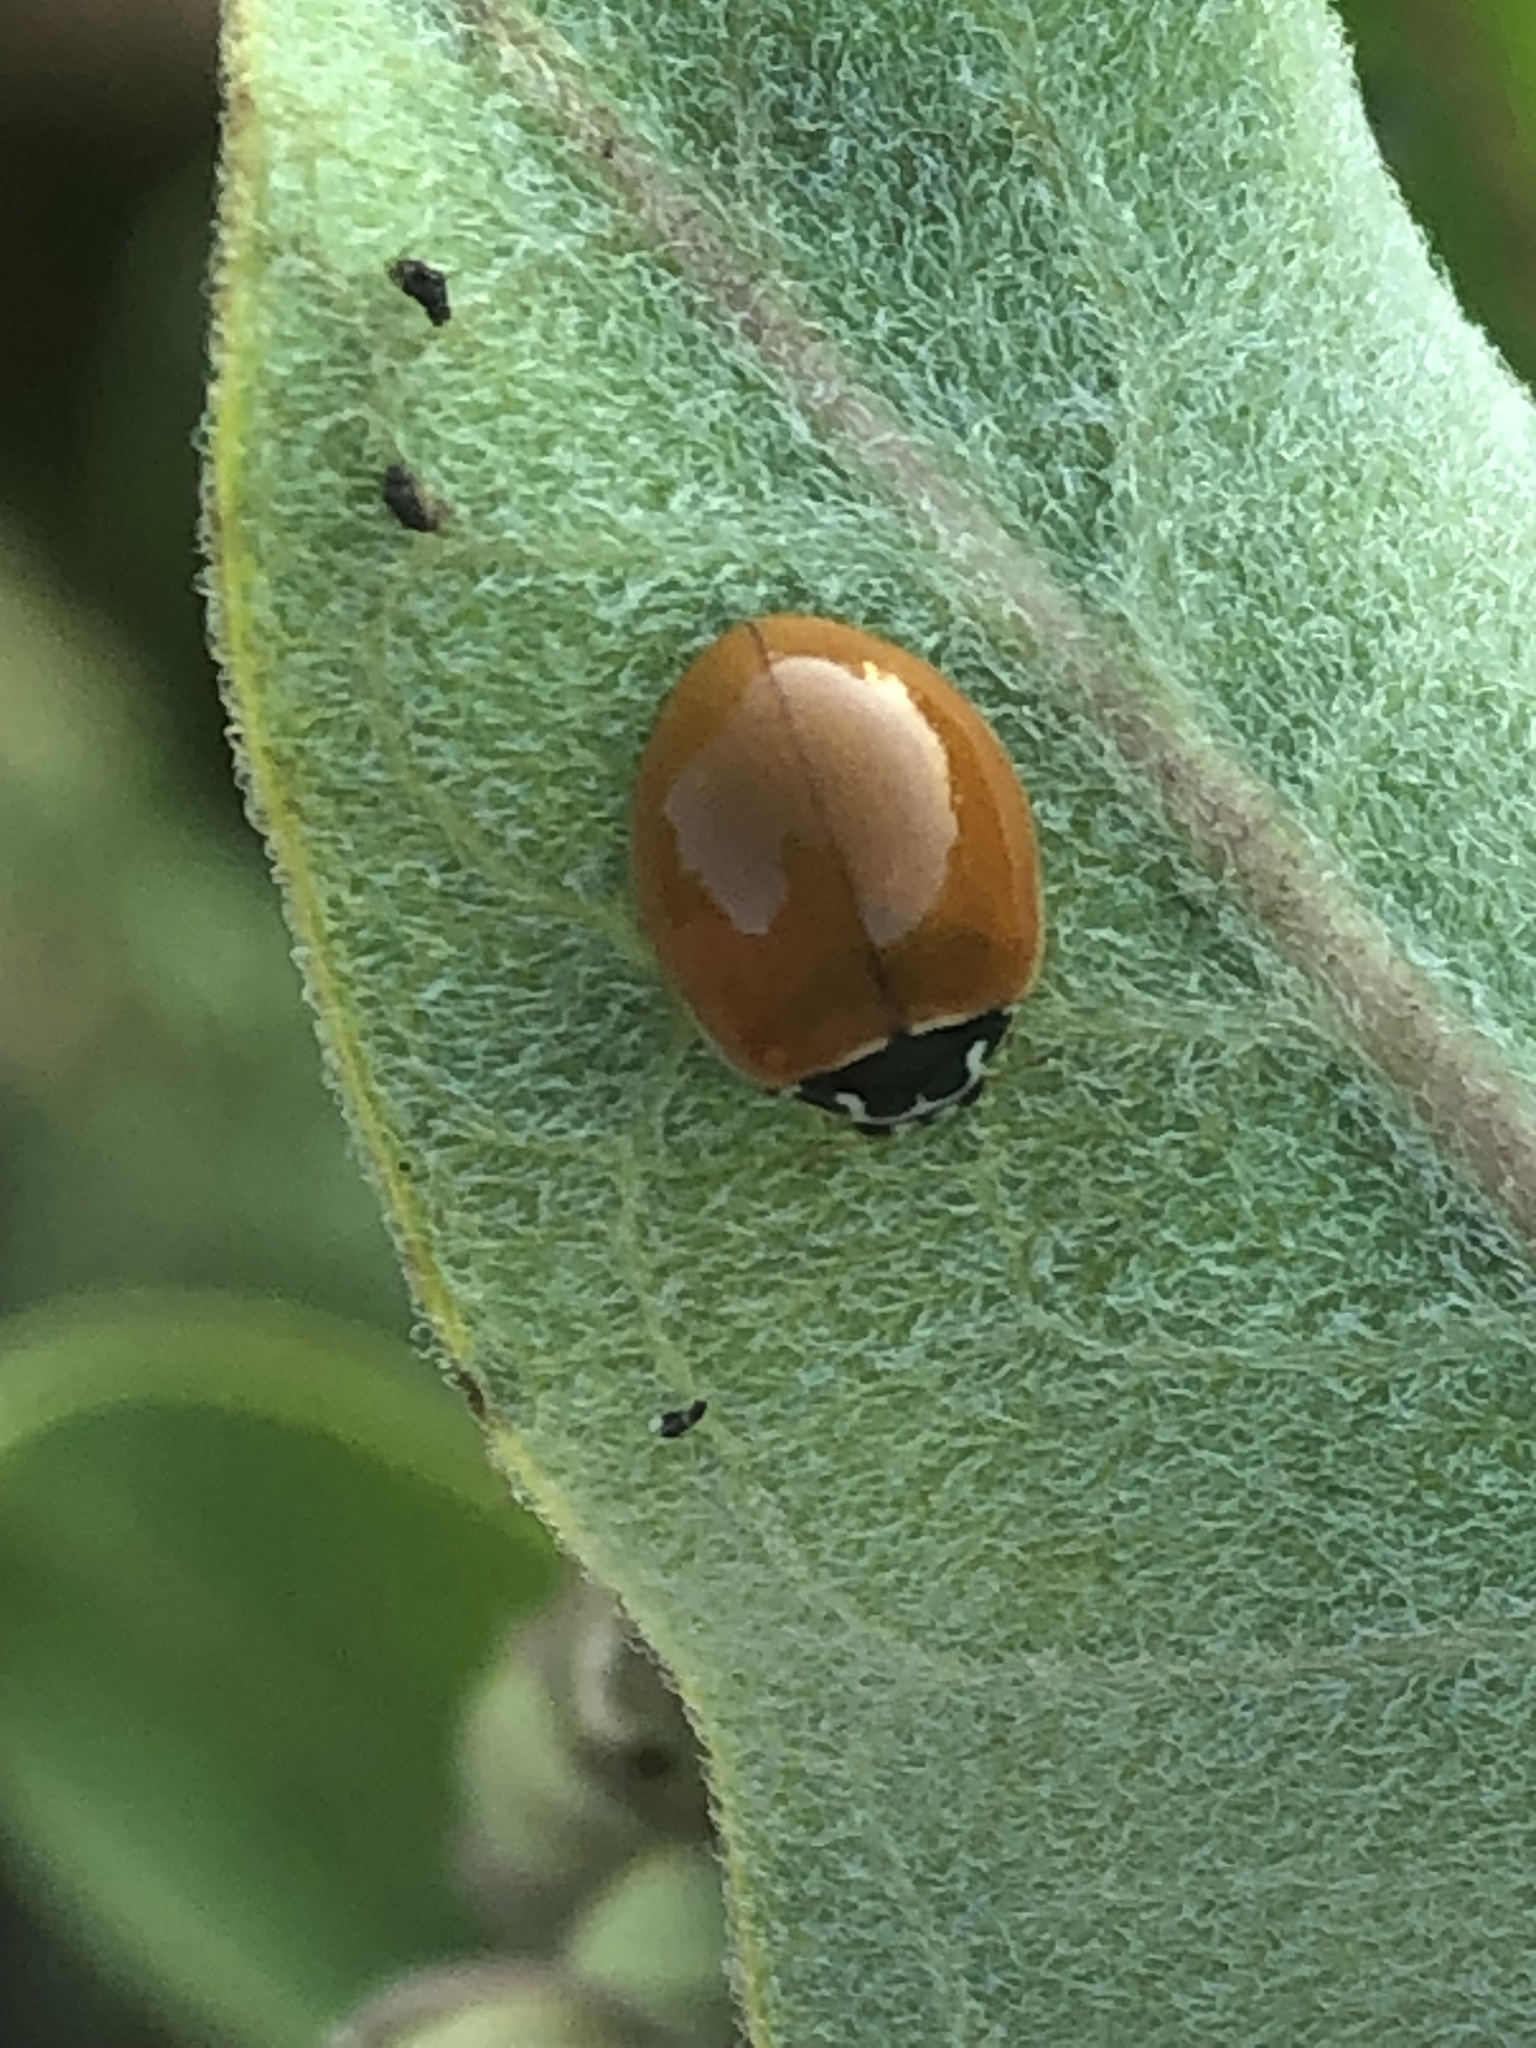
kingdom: Animalia
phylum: Arthropoda
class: Insecta
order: Coleoptera
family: Coccinellidae
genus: Cycloneda
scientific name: Cycloneda munda
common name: Polished lady beetle
